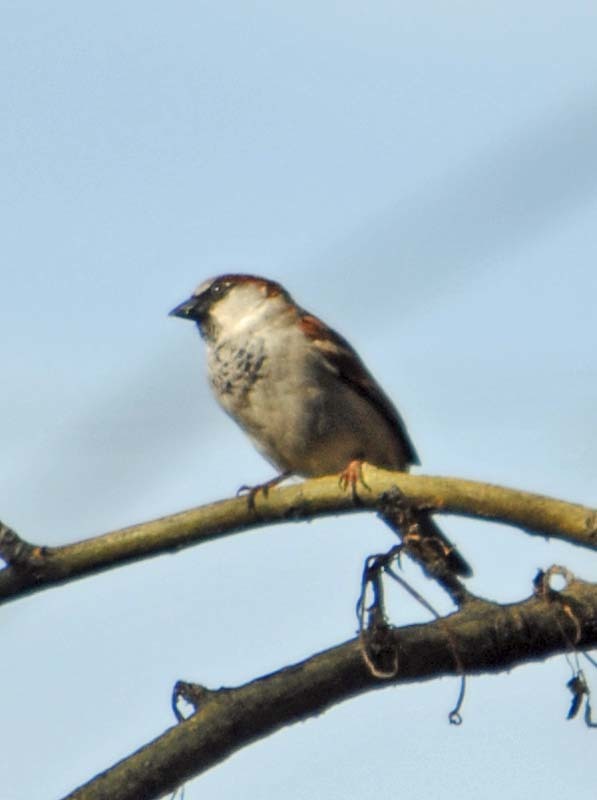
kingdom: Animalia
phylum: Chordata
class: Aves
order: Passeriformes
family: Passeridae
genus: Passer
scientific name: Passer domesticus
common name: House sparrow
